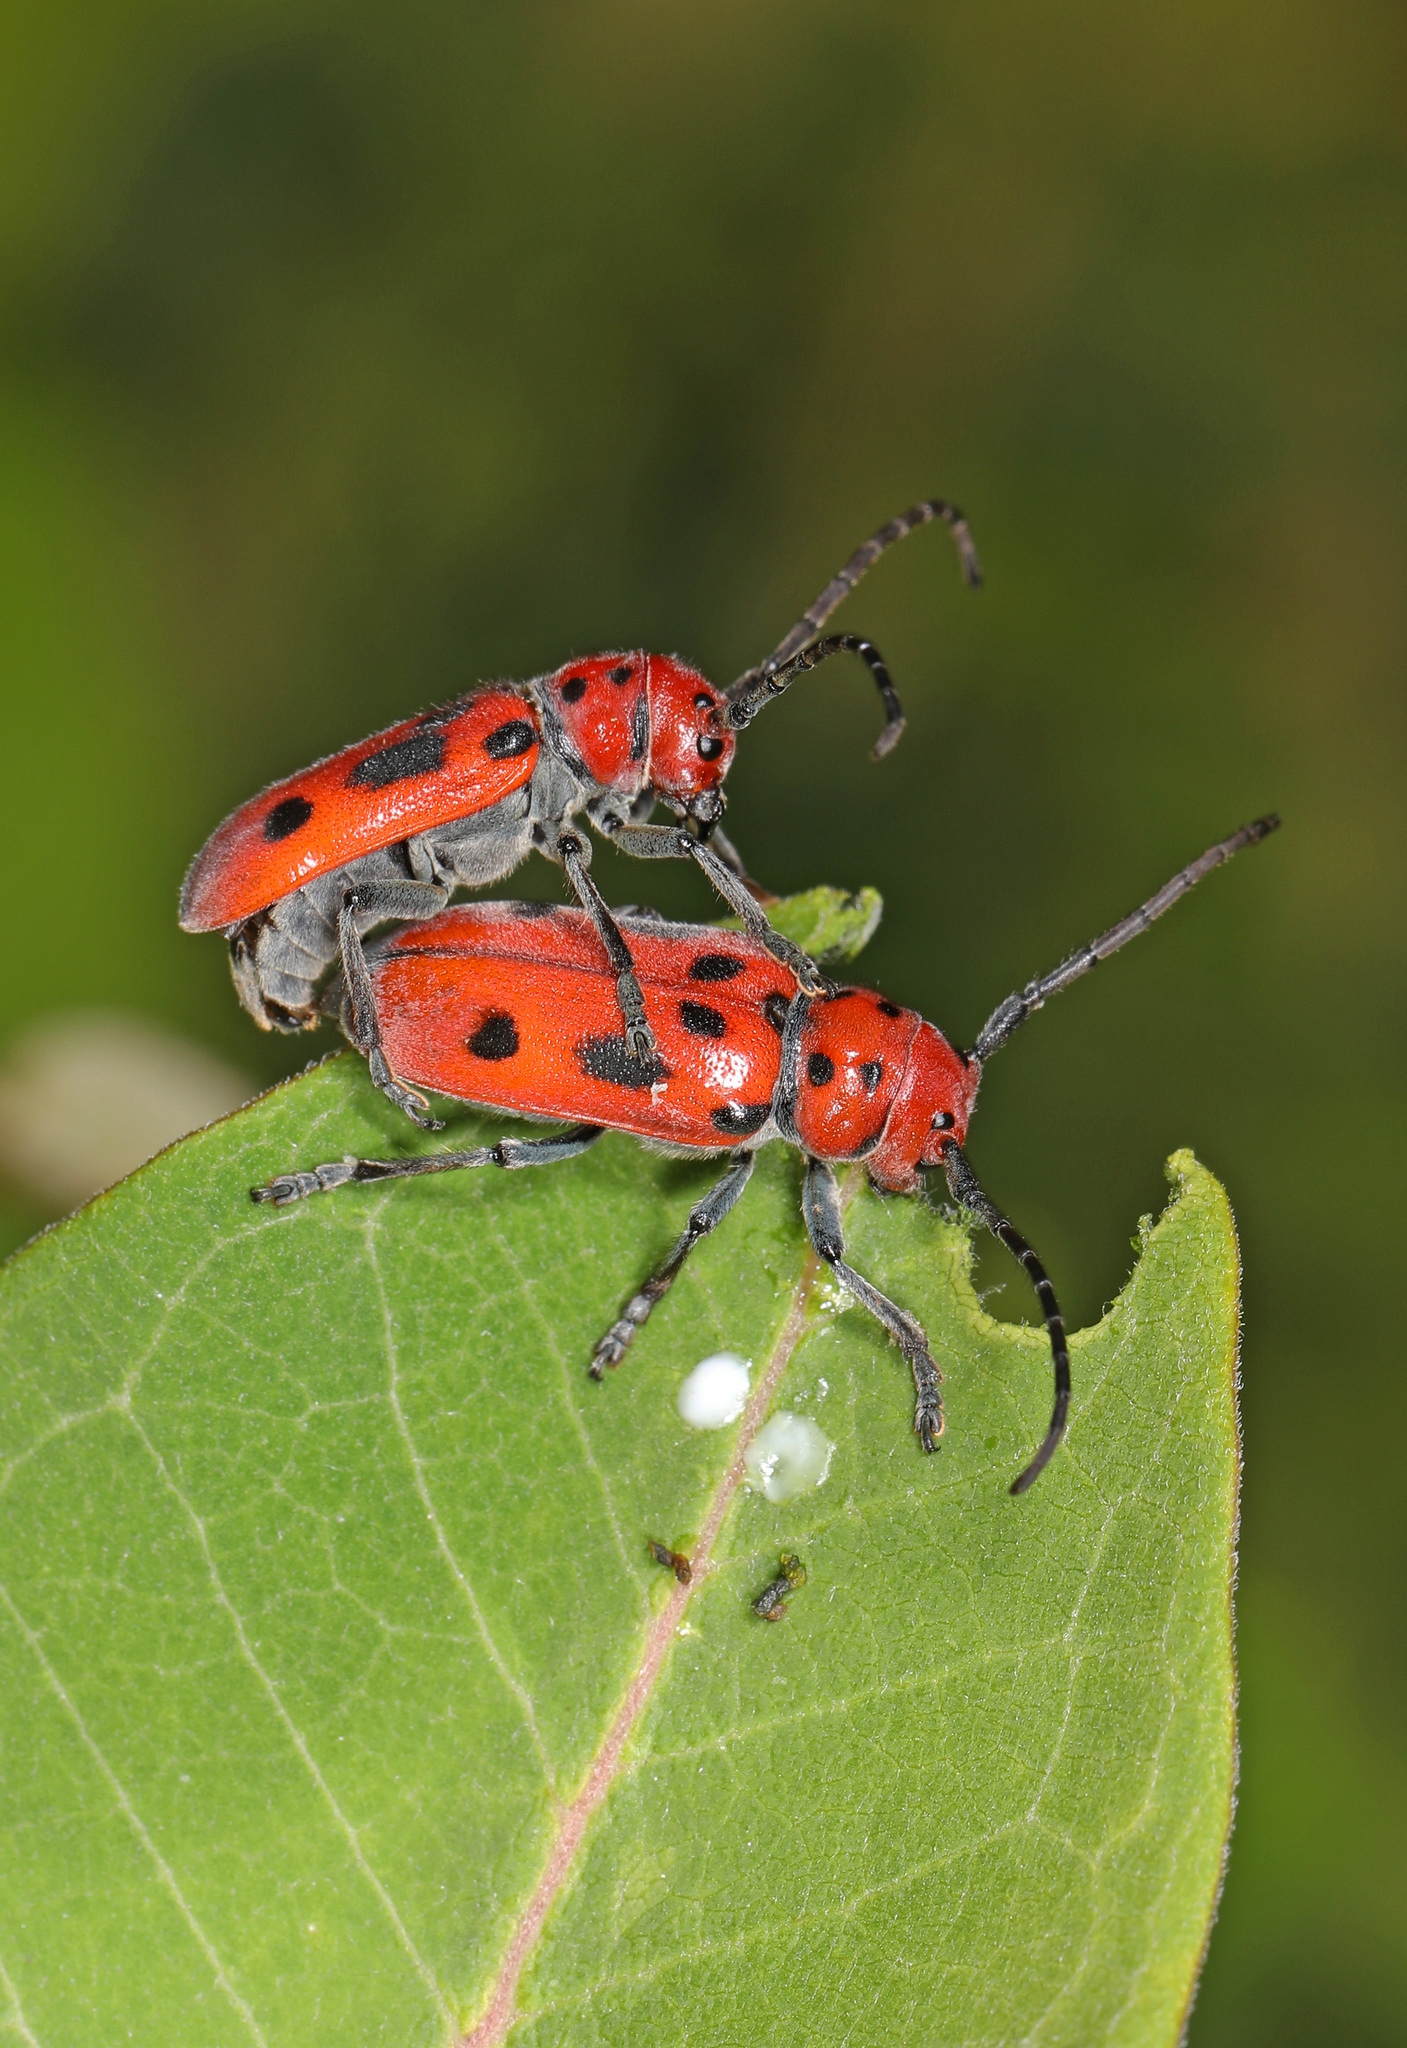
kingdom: Animalia
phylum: Arthropoda
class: Insecta
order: Coleoptera
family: Cerambycidae
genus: Tetraopes
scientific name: Tetraopes tetrophthalmus
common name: Red milkweed beetle
